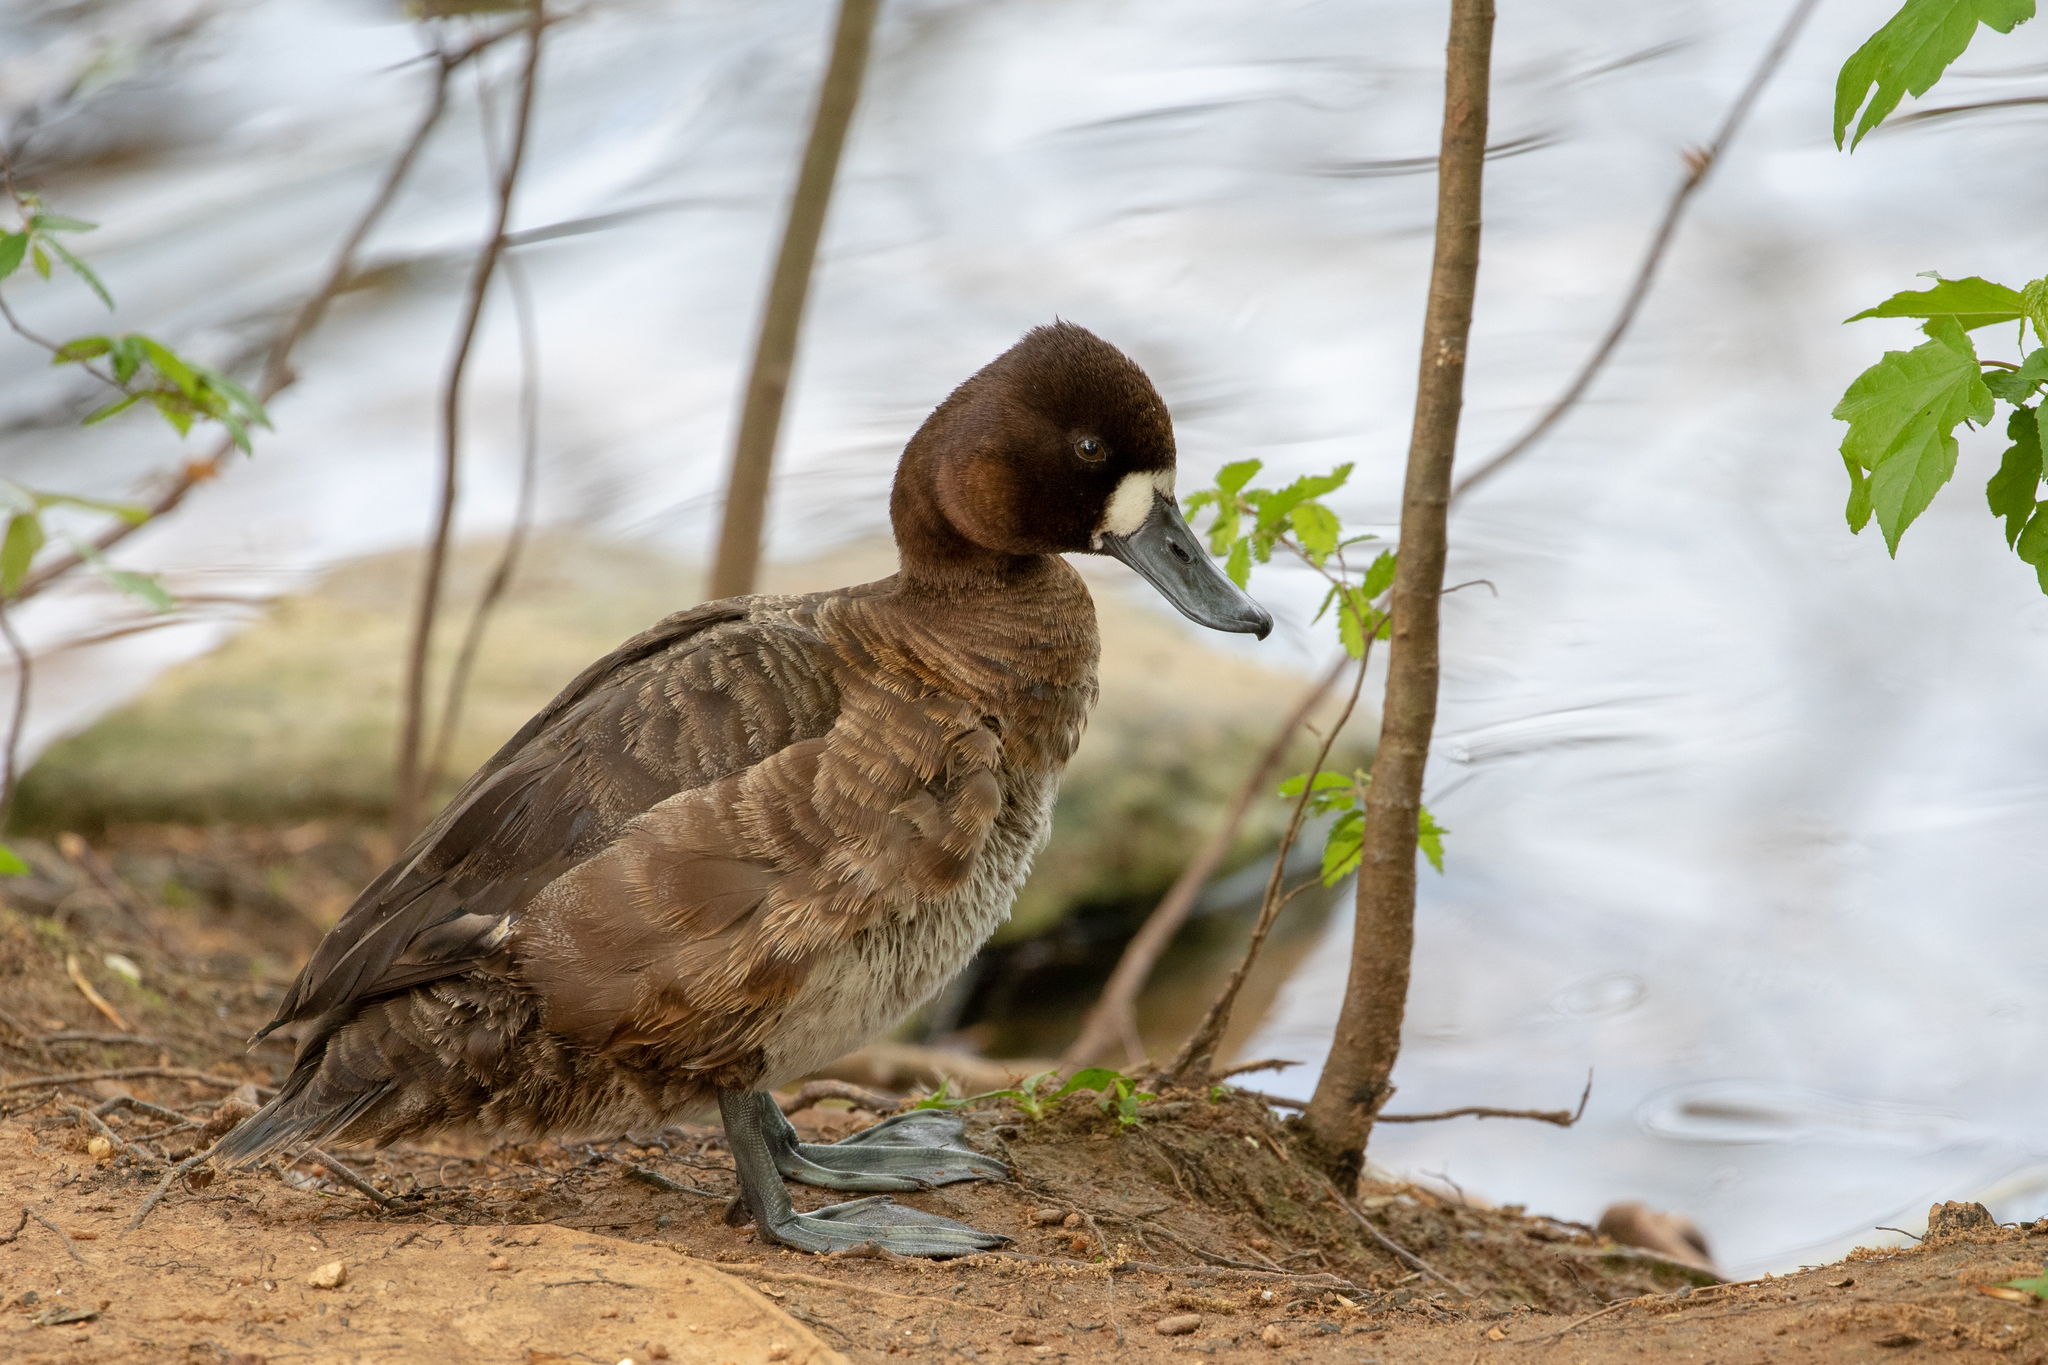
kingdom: Animalia
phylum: Chordata
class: Aves
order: Anseriformes
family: Anatidae
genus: Aythya
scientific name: Aythya affinis
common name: Lesser scaup
